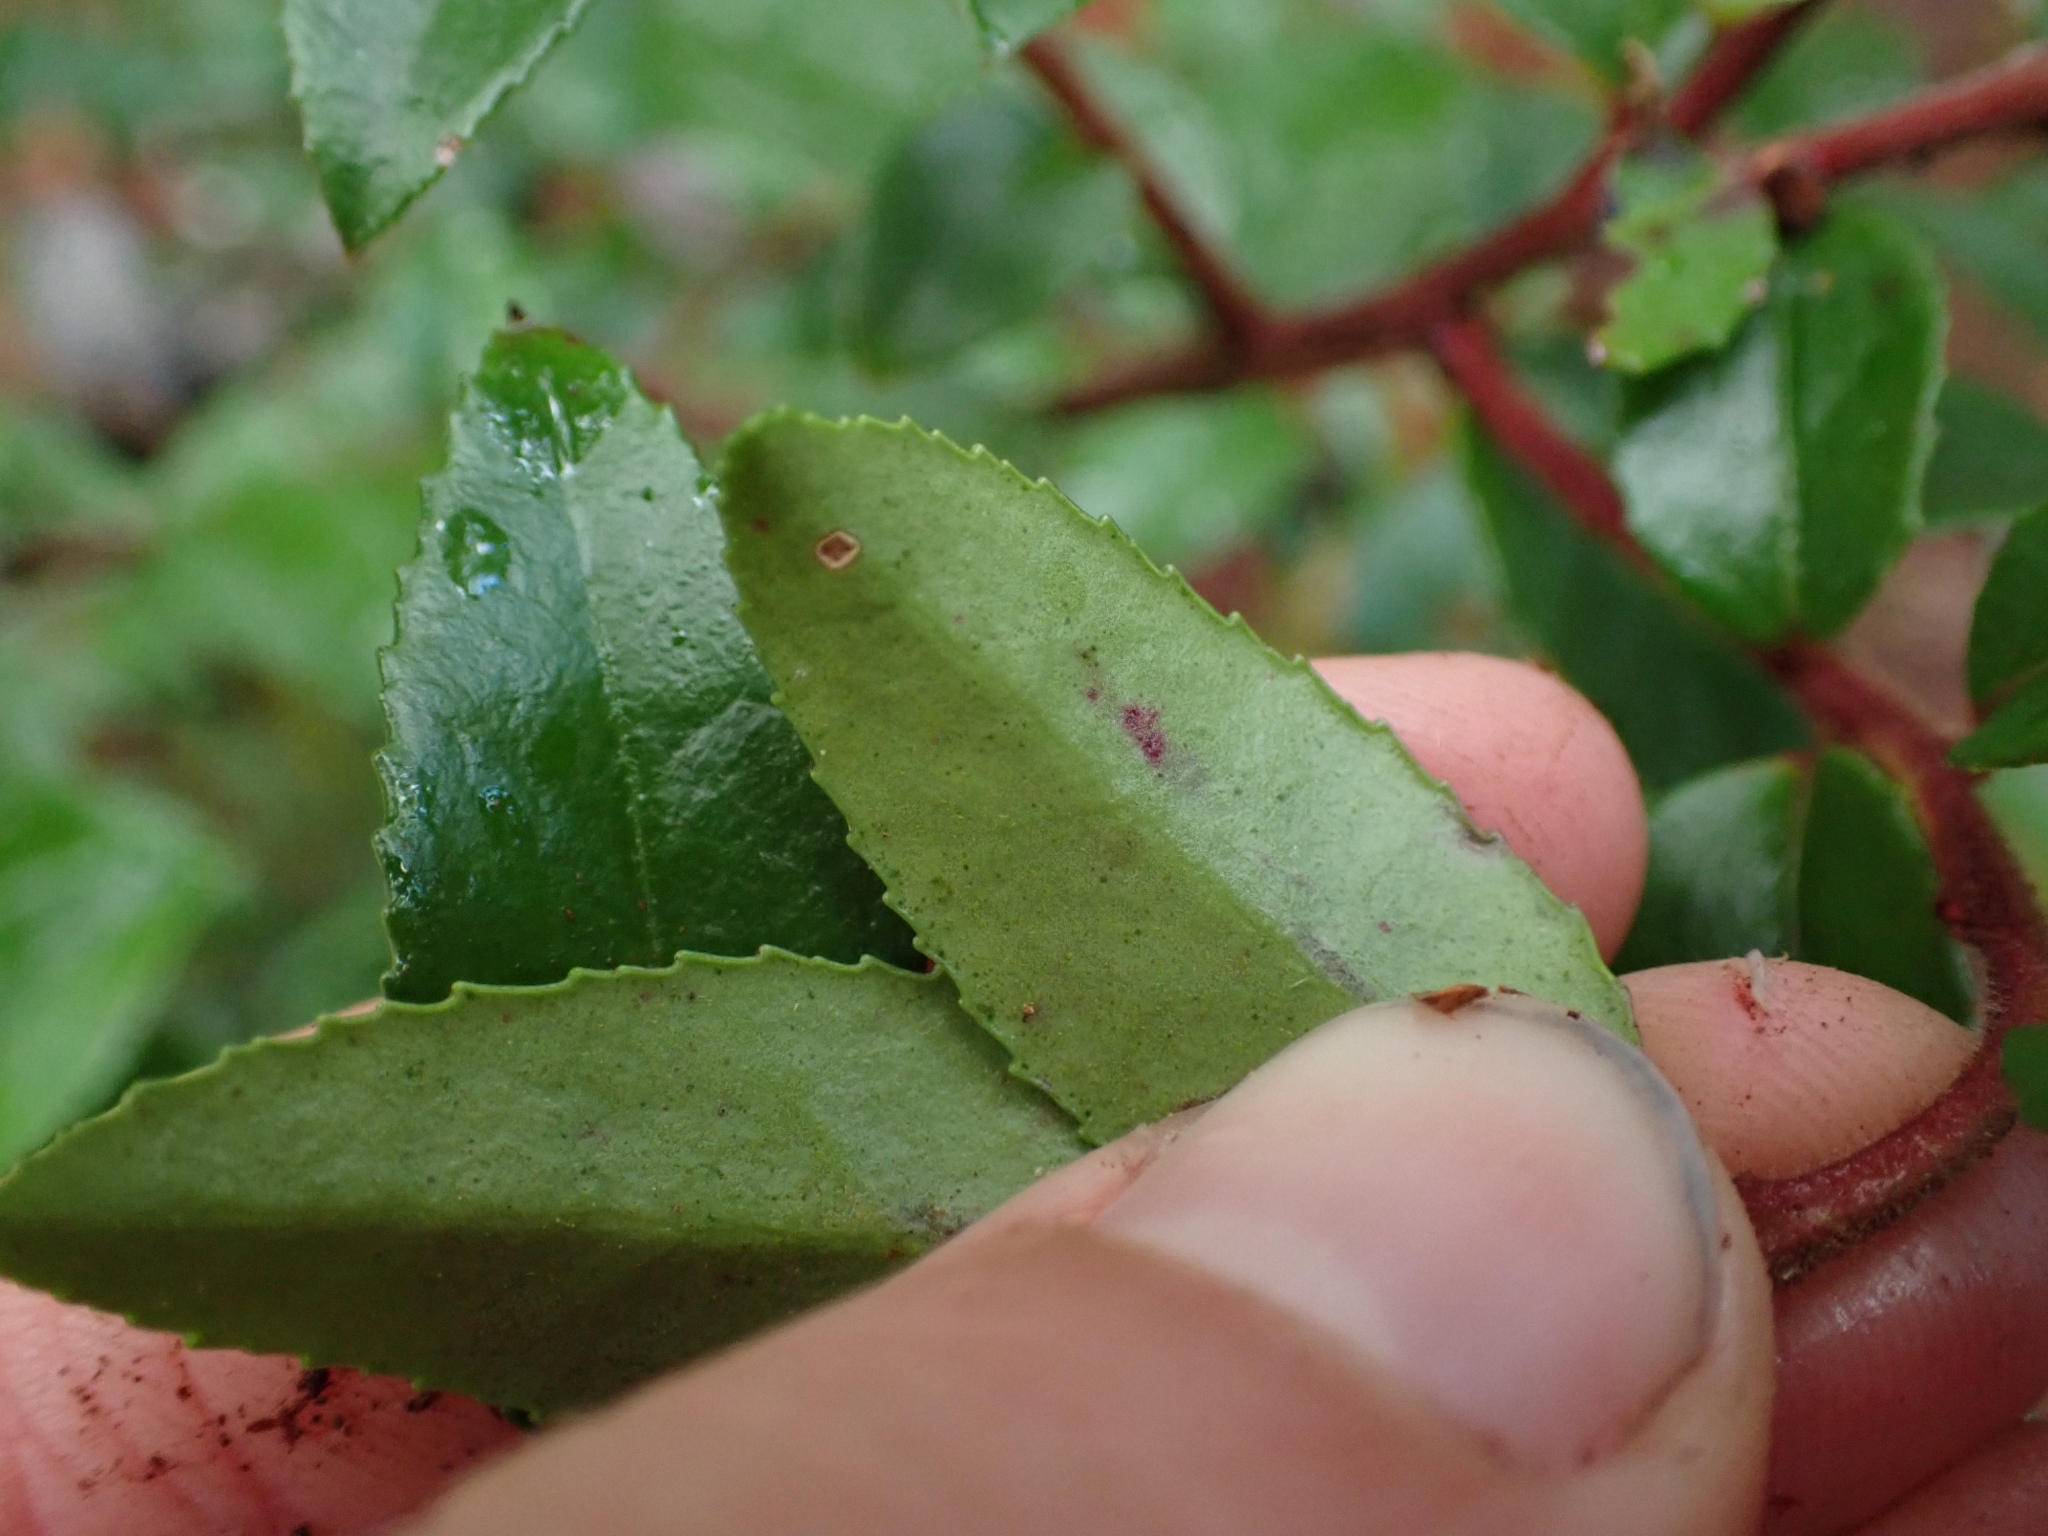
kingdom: Plantae
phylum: Tracheophyta
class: Magnoliopsida
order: Ericales
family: Ericaceae
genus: Vaccinium
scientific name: Vaccinium ovatum
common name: California-huckleberry
